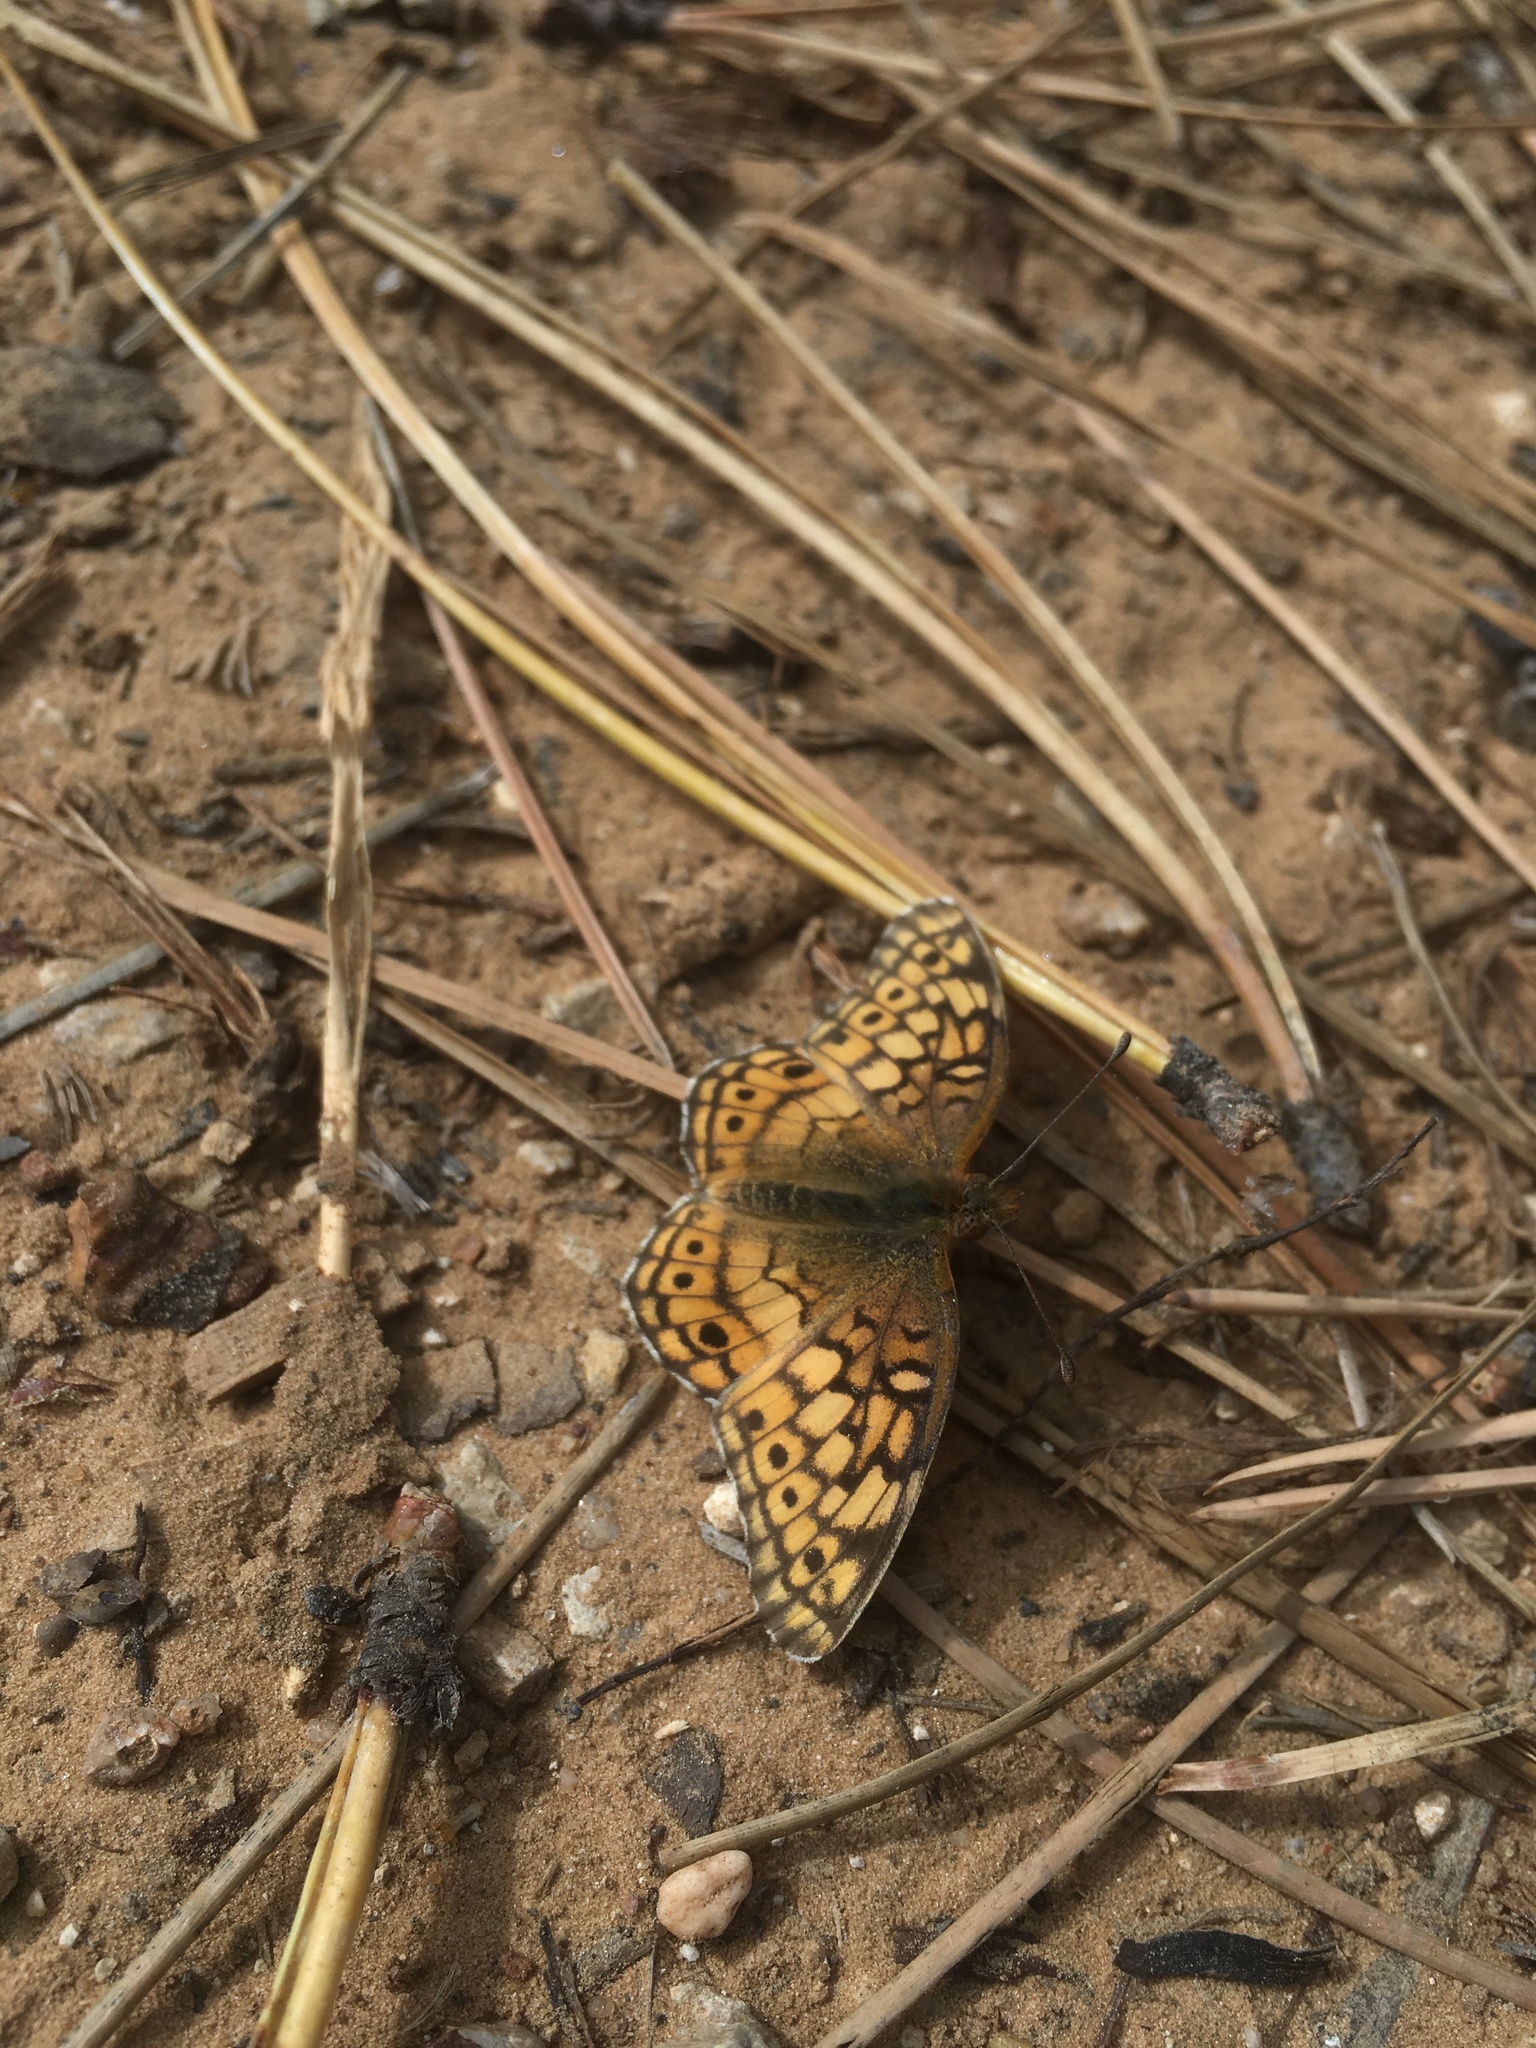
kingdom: Animalia
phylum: Arthropoda
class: Insecta
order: Lepidoptera
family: Nymphalidae
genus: Euptoieta
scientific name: Euptoieta claudia
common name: Variegated fritillary
